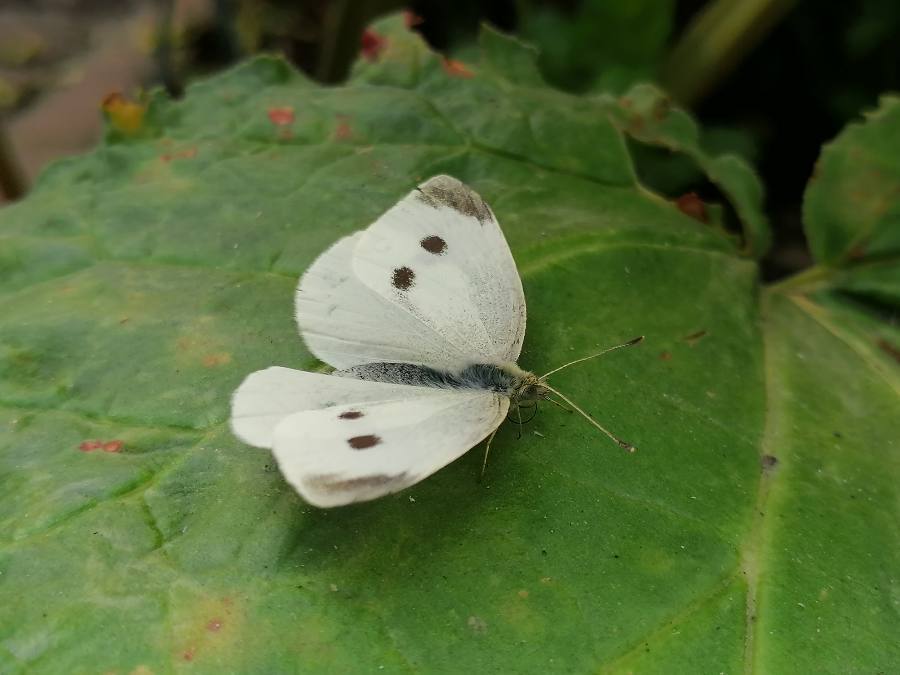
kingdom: Animalia
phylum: Arthropoda
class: Insecta
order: Lepidoptera
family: Pieridae
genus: Pieris
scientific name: Pieris rapae
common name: Small white
